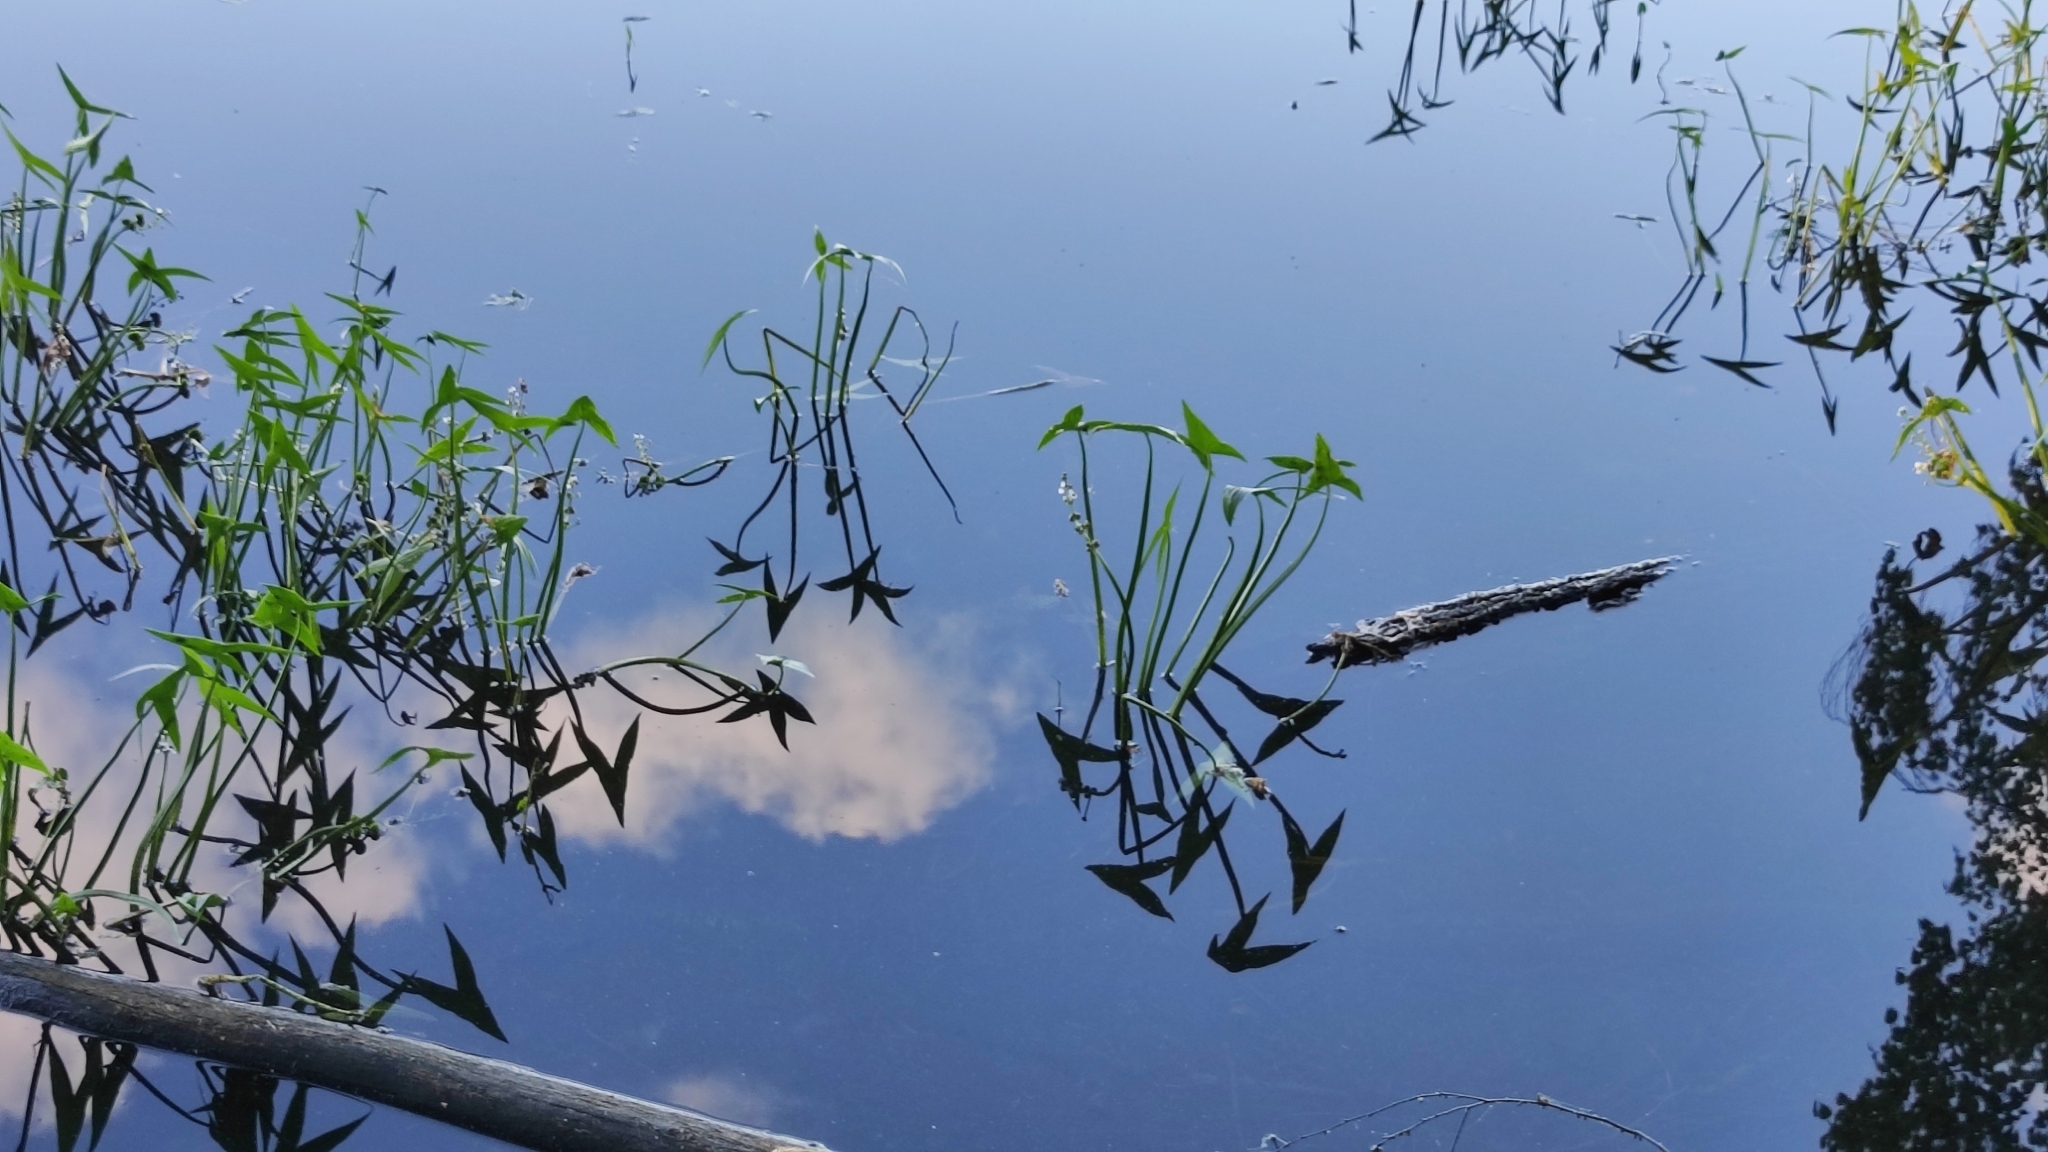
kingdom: Plantae
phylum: Tracheophyta
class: Liliopsida
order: Alismatales
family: Alismataceae
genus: Sagittaria
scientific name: Sagittaria sagittifolia
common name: Arrowhead
